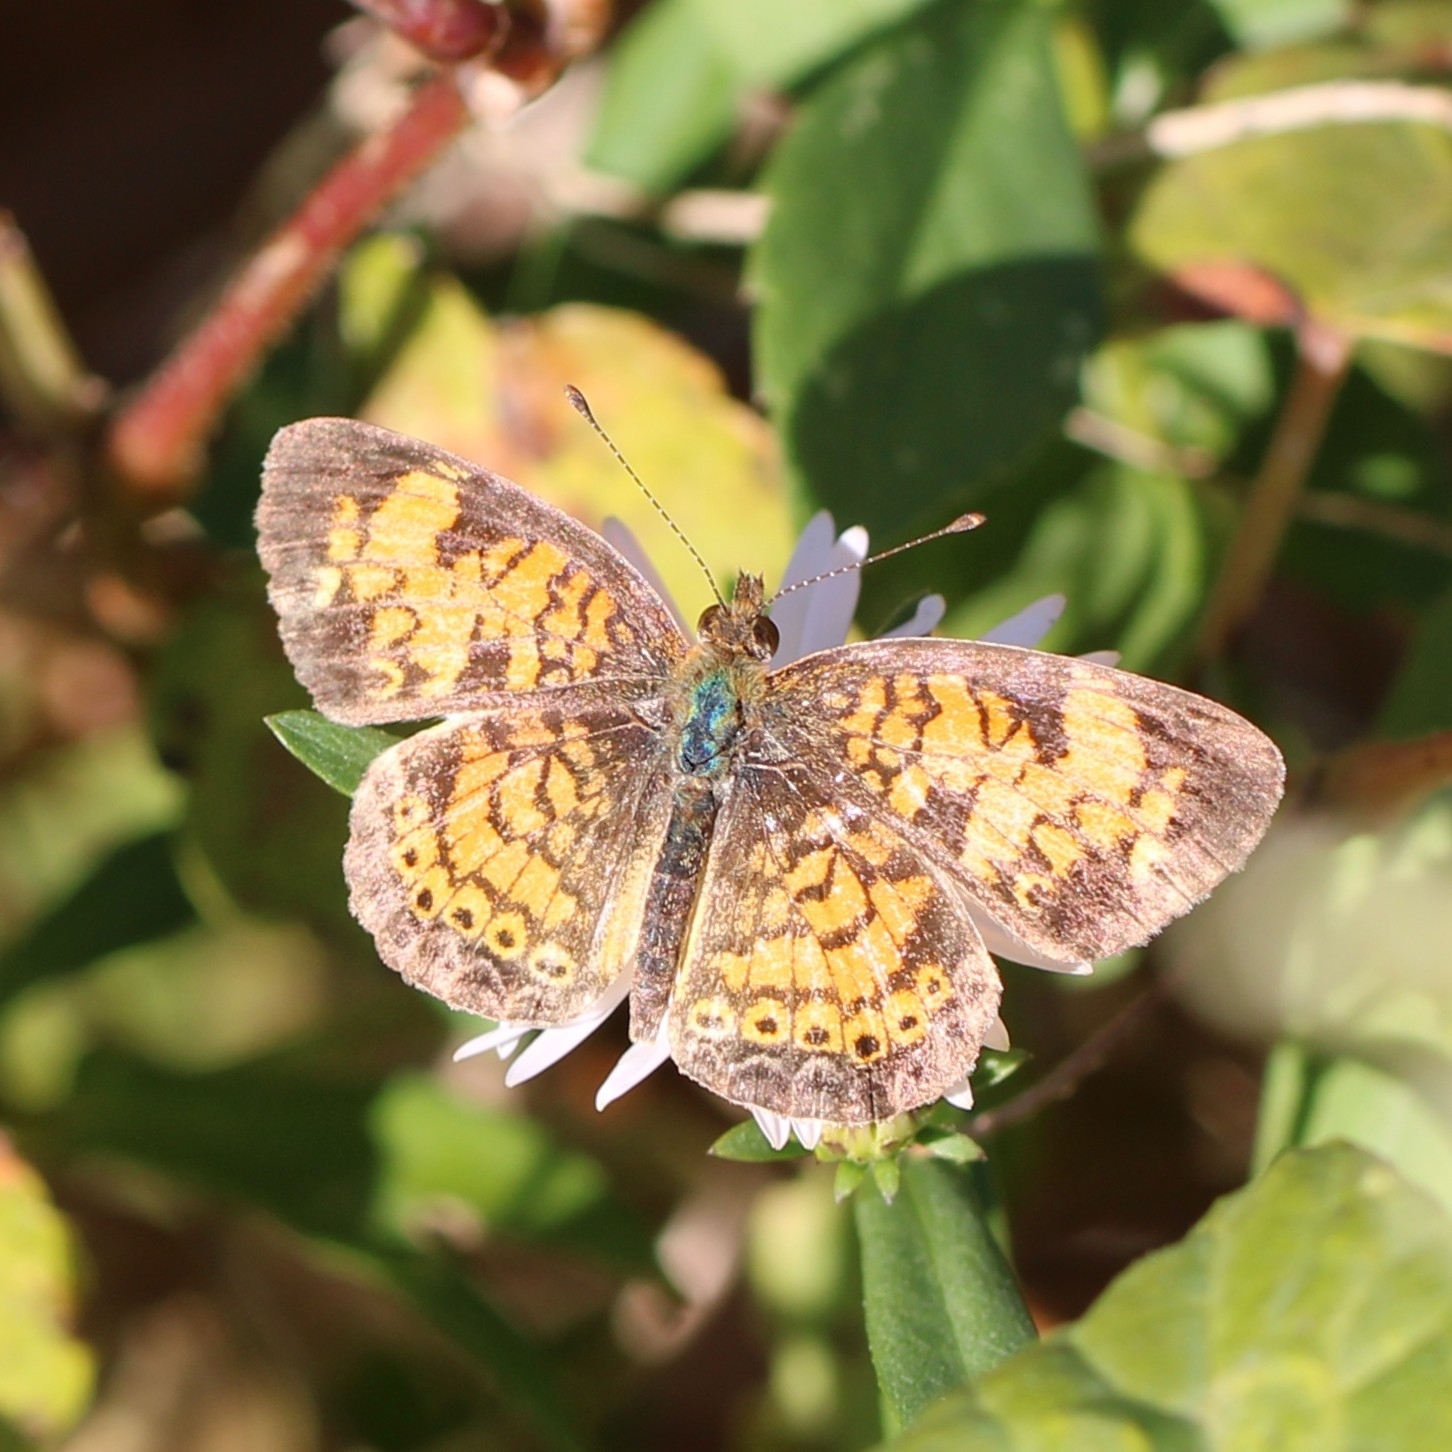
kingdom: Animalia
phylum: Arthropoda
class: Insecta
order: Lepidoptera
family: Nymphalidae
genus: Phyciodes
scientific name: Phyciodes tharos
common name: Pearl crescent
